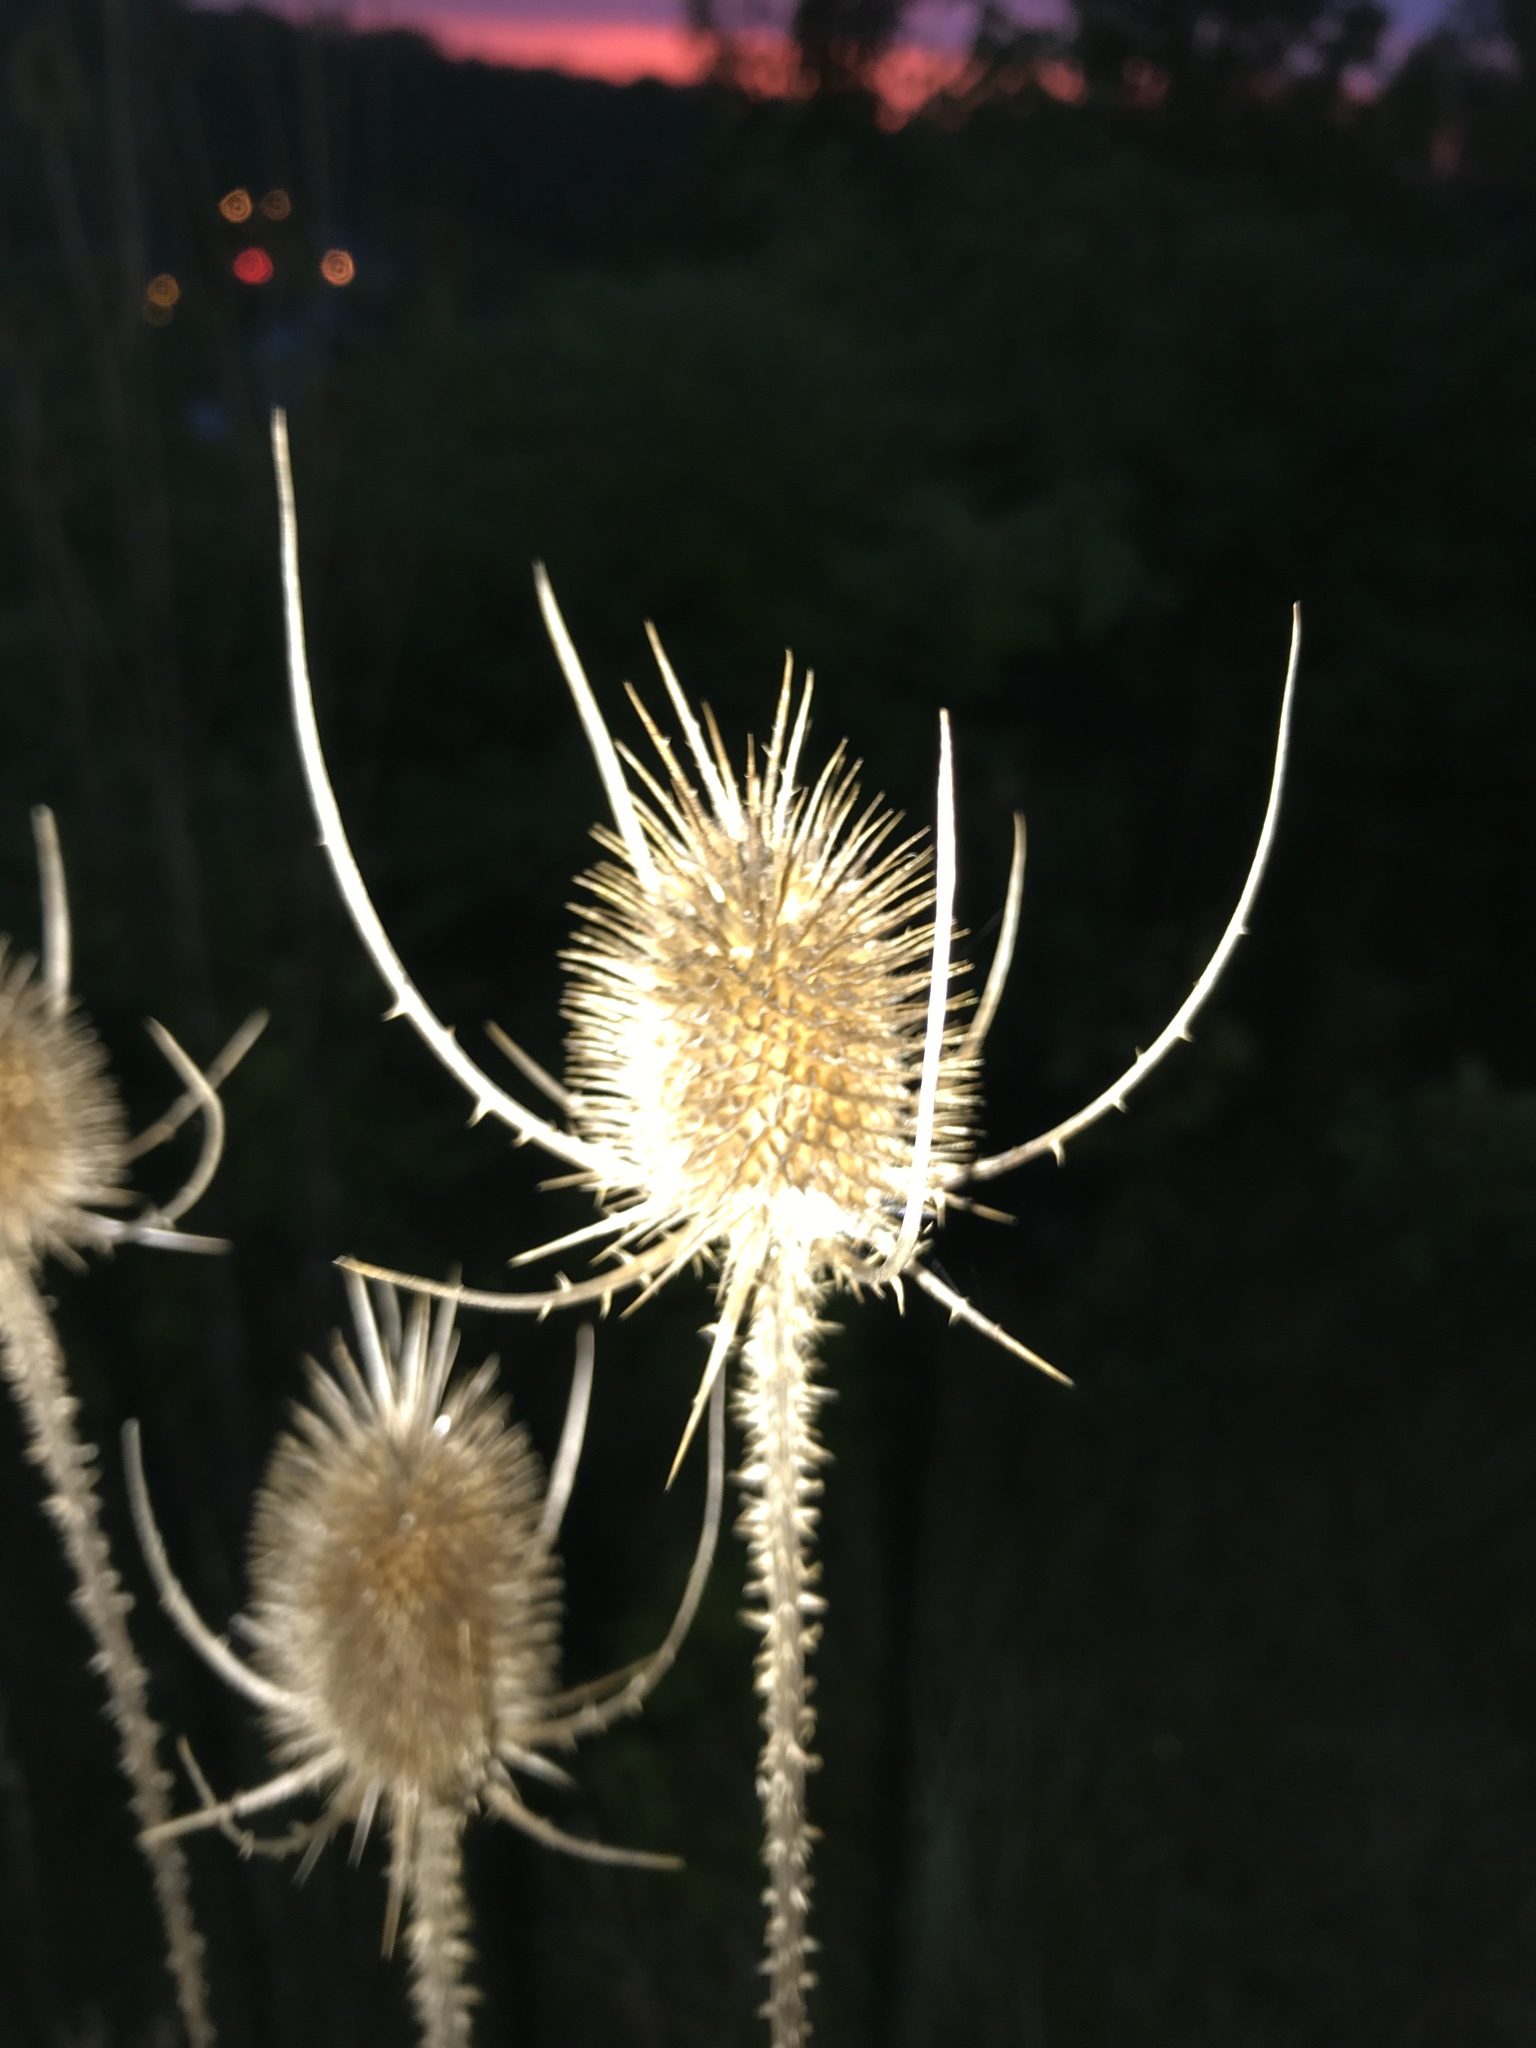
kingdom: Plantae
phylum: Tracheophyta
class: Magnoliopsida
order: Dipsacales
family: Caprifoliaceae
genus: Dipsacus
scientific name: Dipsacus fullonum
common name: Teasel
